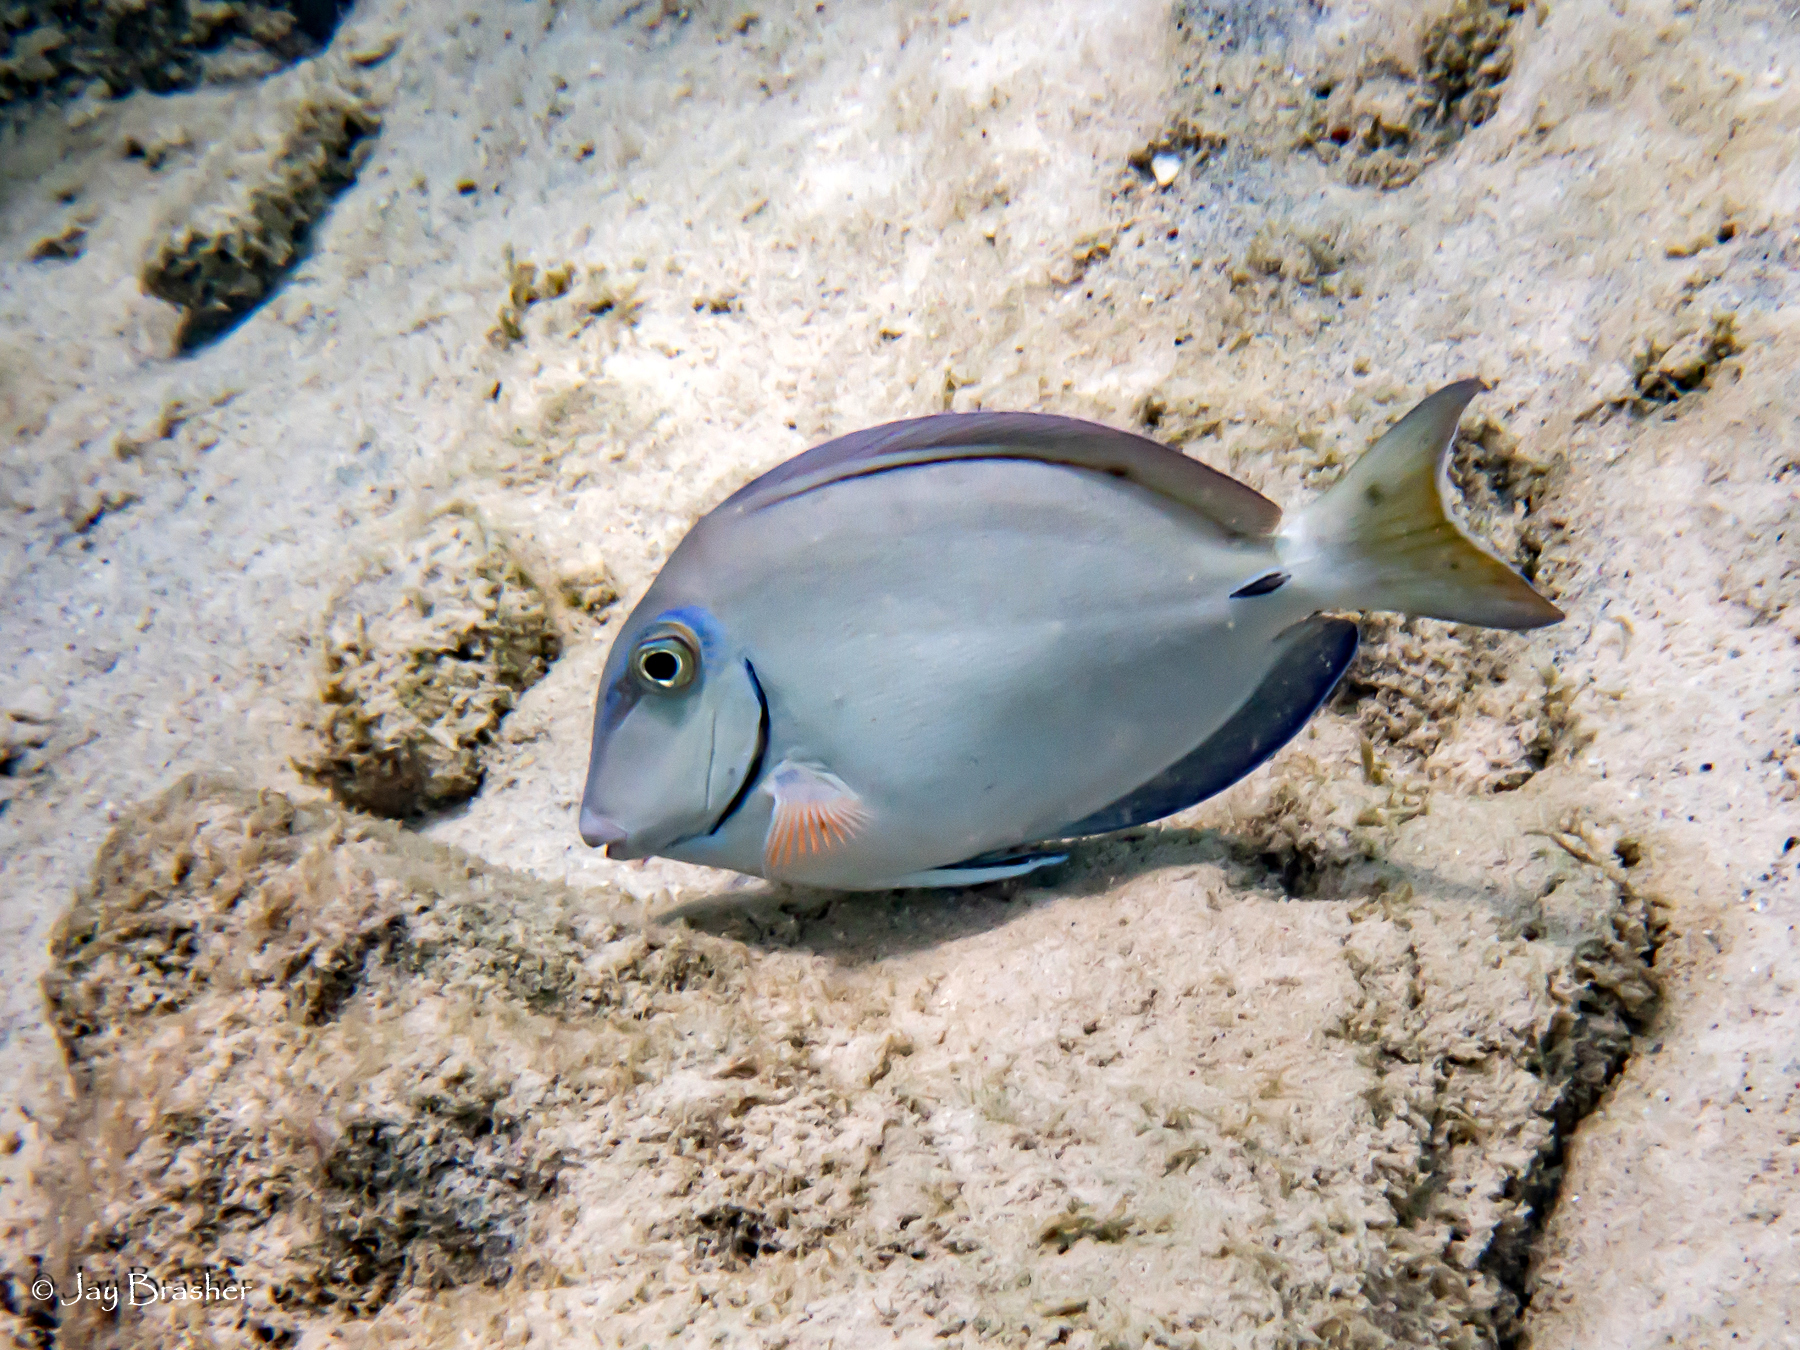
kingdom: Animalia
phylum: Chordata
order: Perciformes
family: Acanthuridae
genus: Acanthurus
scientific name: Acanthurus bahianus
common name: Ocean surgeon
